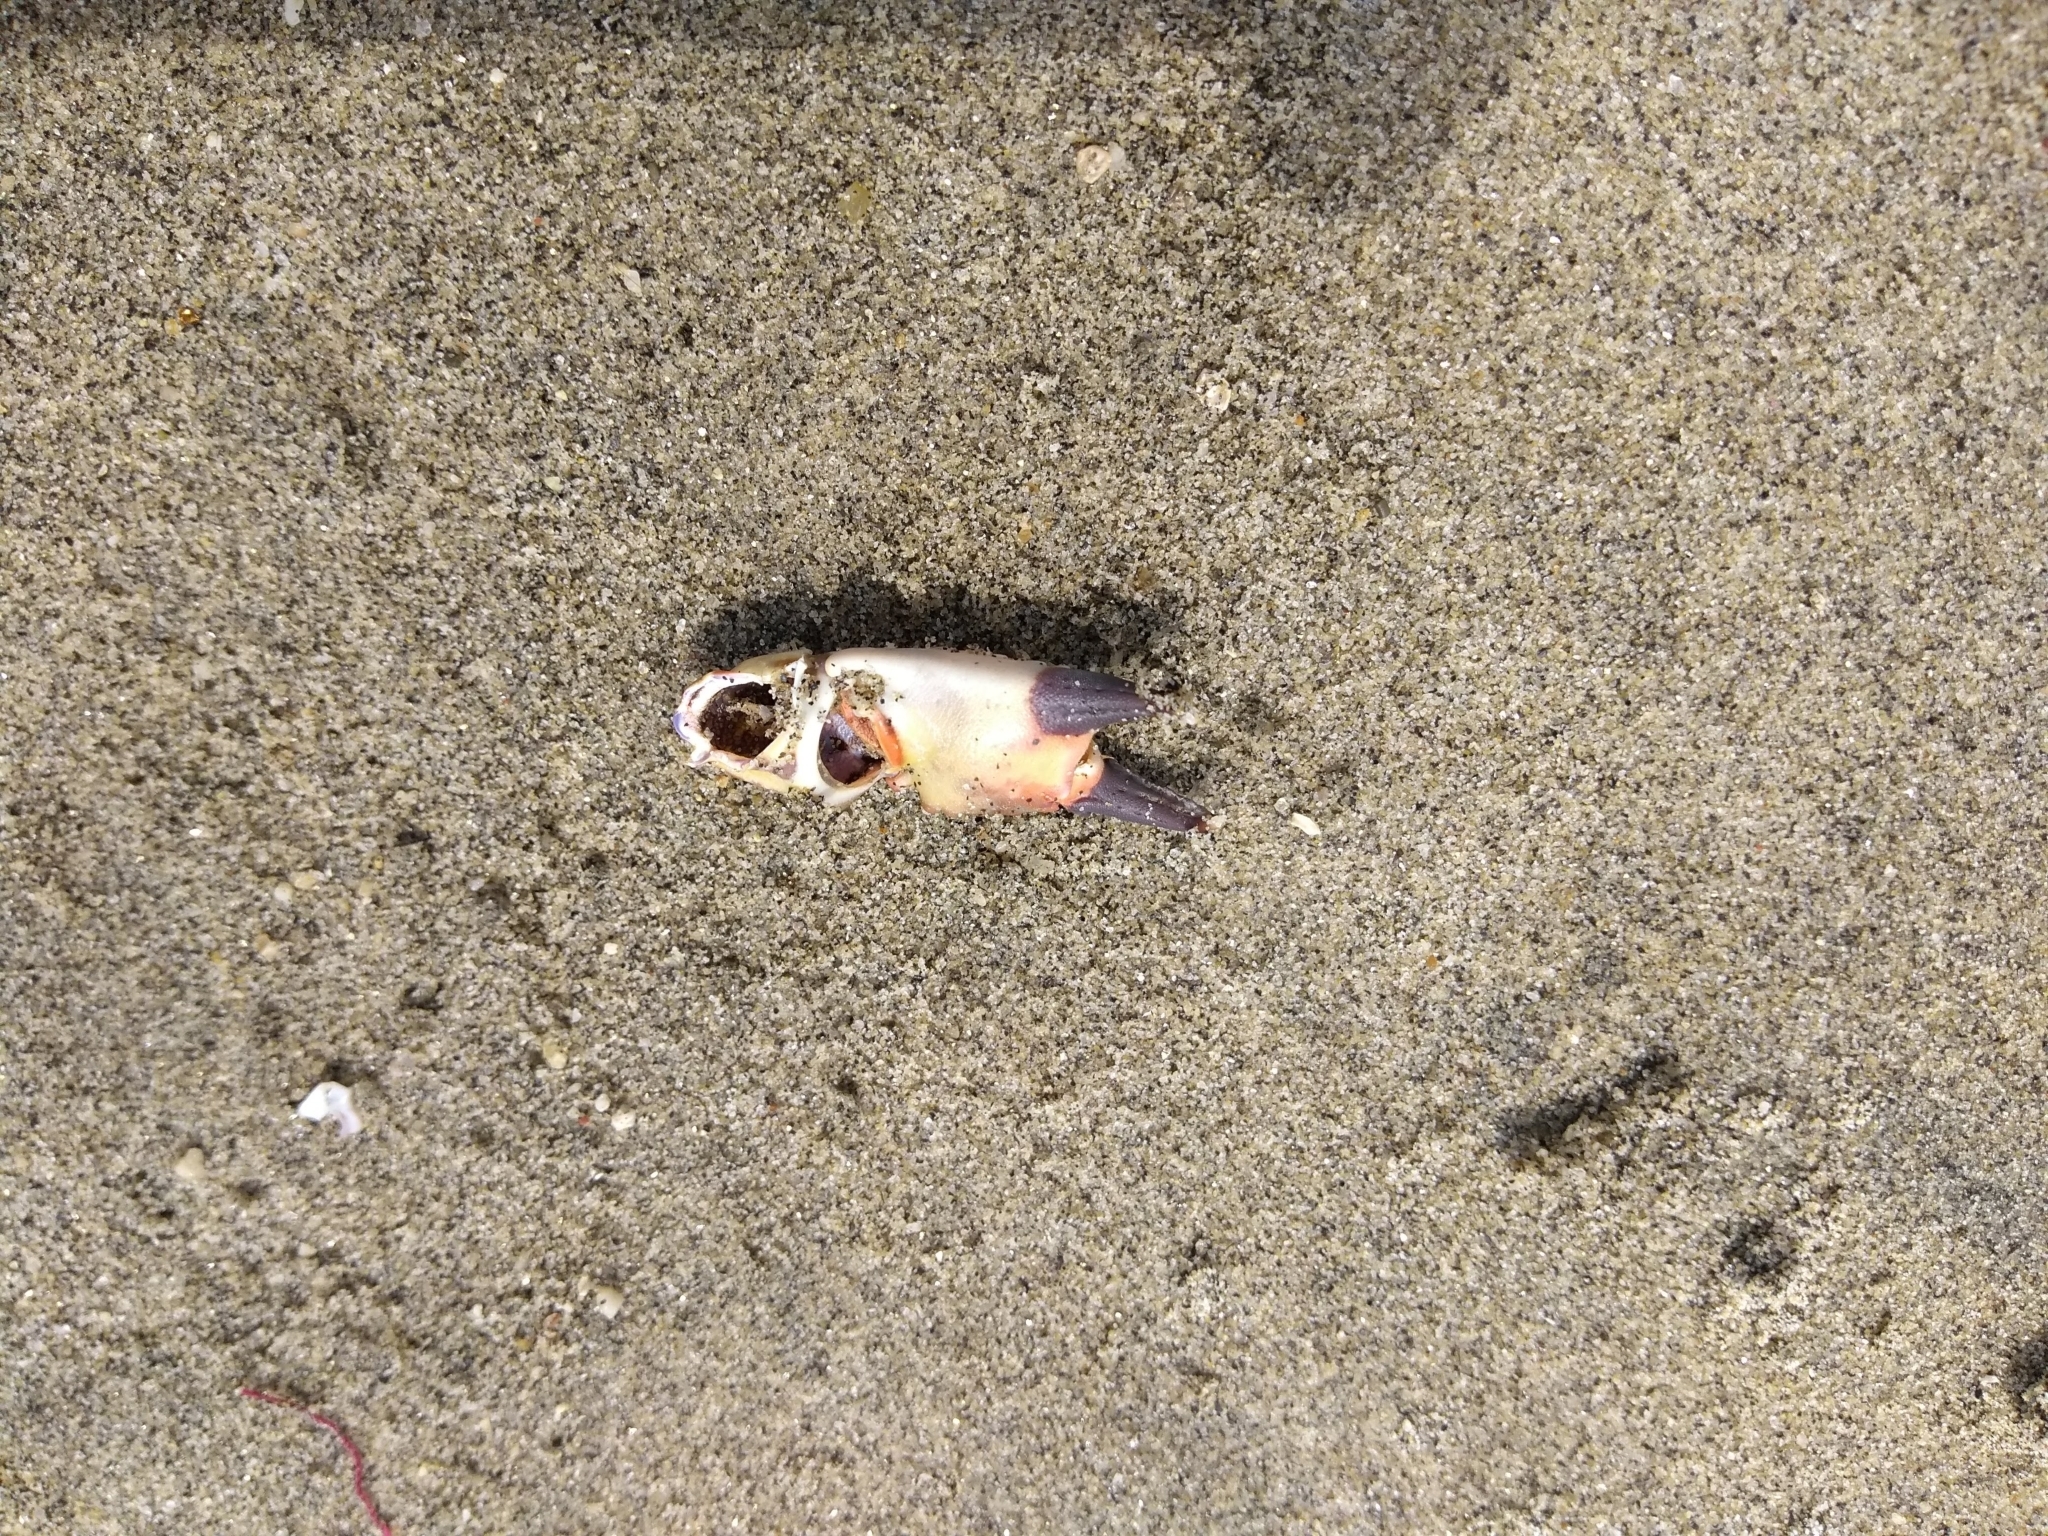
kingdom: Animalia
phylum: Arthropoda
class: Malacostraca
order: Decapoda
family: Eriphiidae
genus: Eriphia
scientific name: Eriphia squamata
